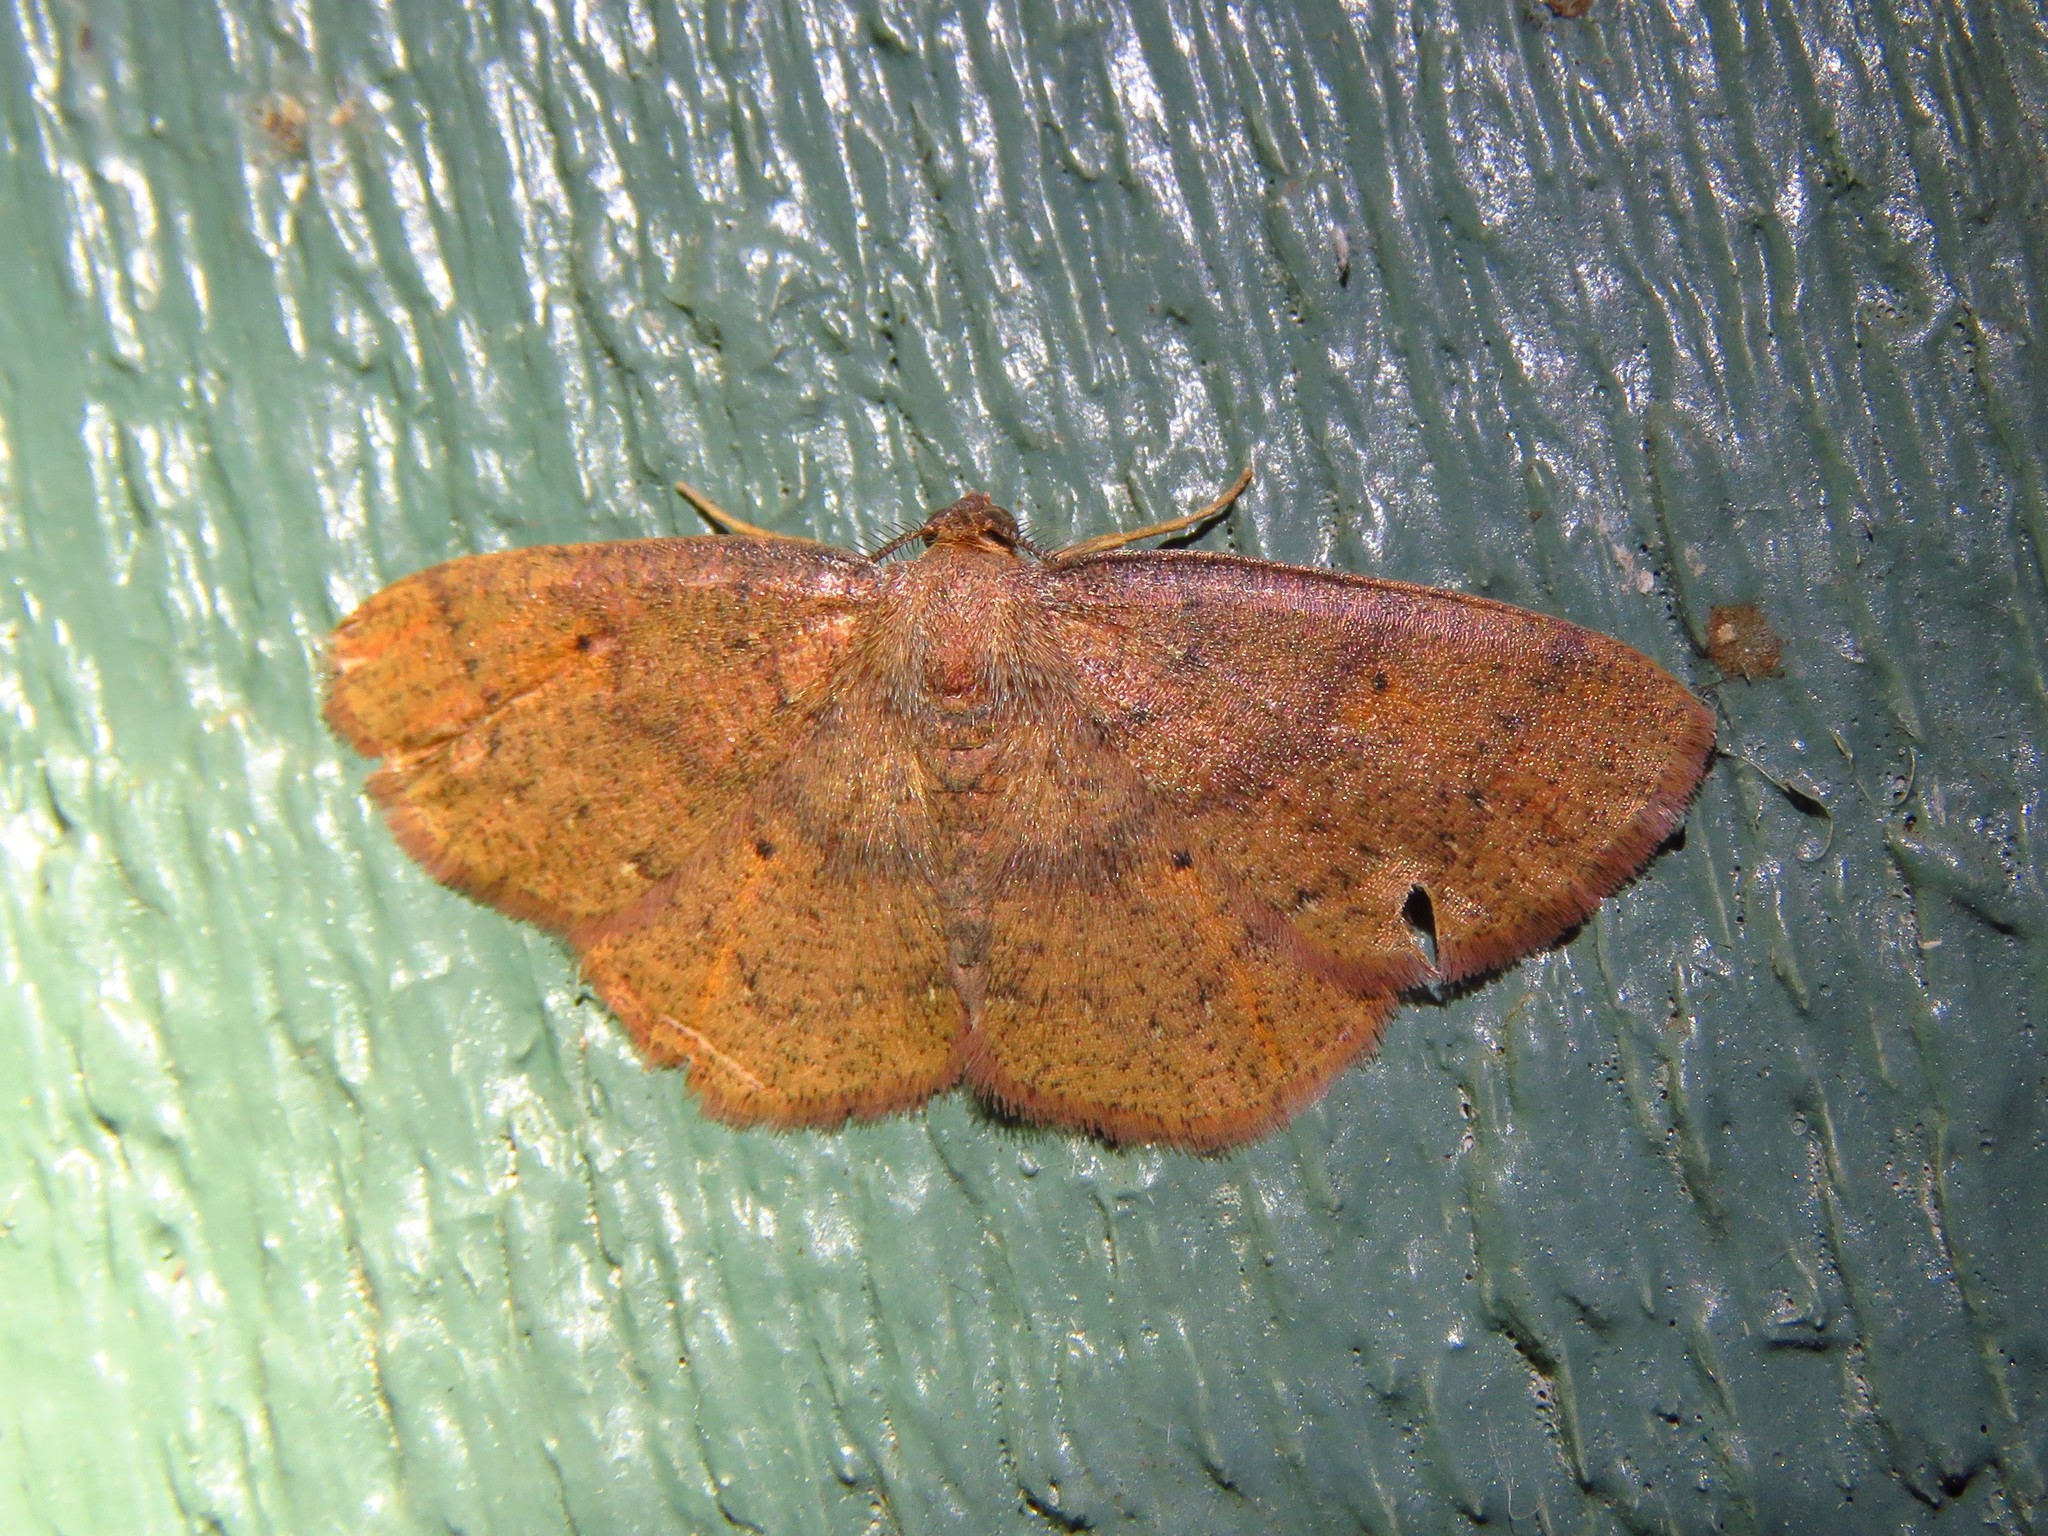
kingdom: Animalia
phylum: Arthropoda
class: Insecta
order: Lepidoptera
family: Geometridae
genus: Ilexia
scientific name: Ilexia intractata
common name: Black-dotted ruddy moth
